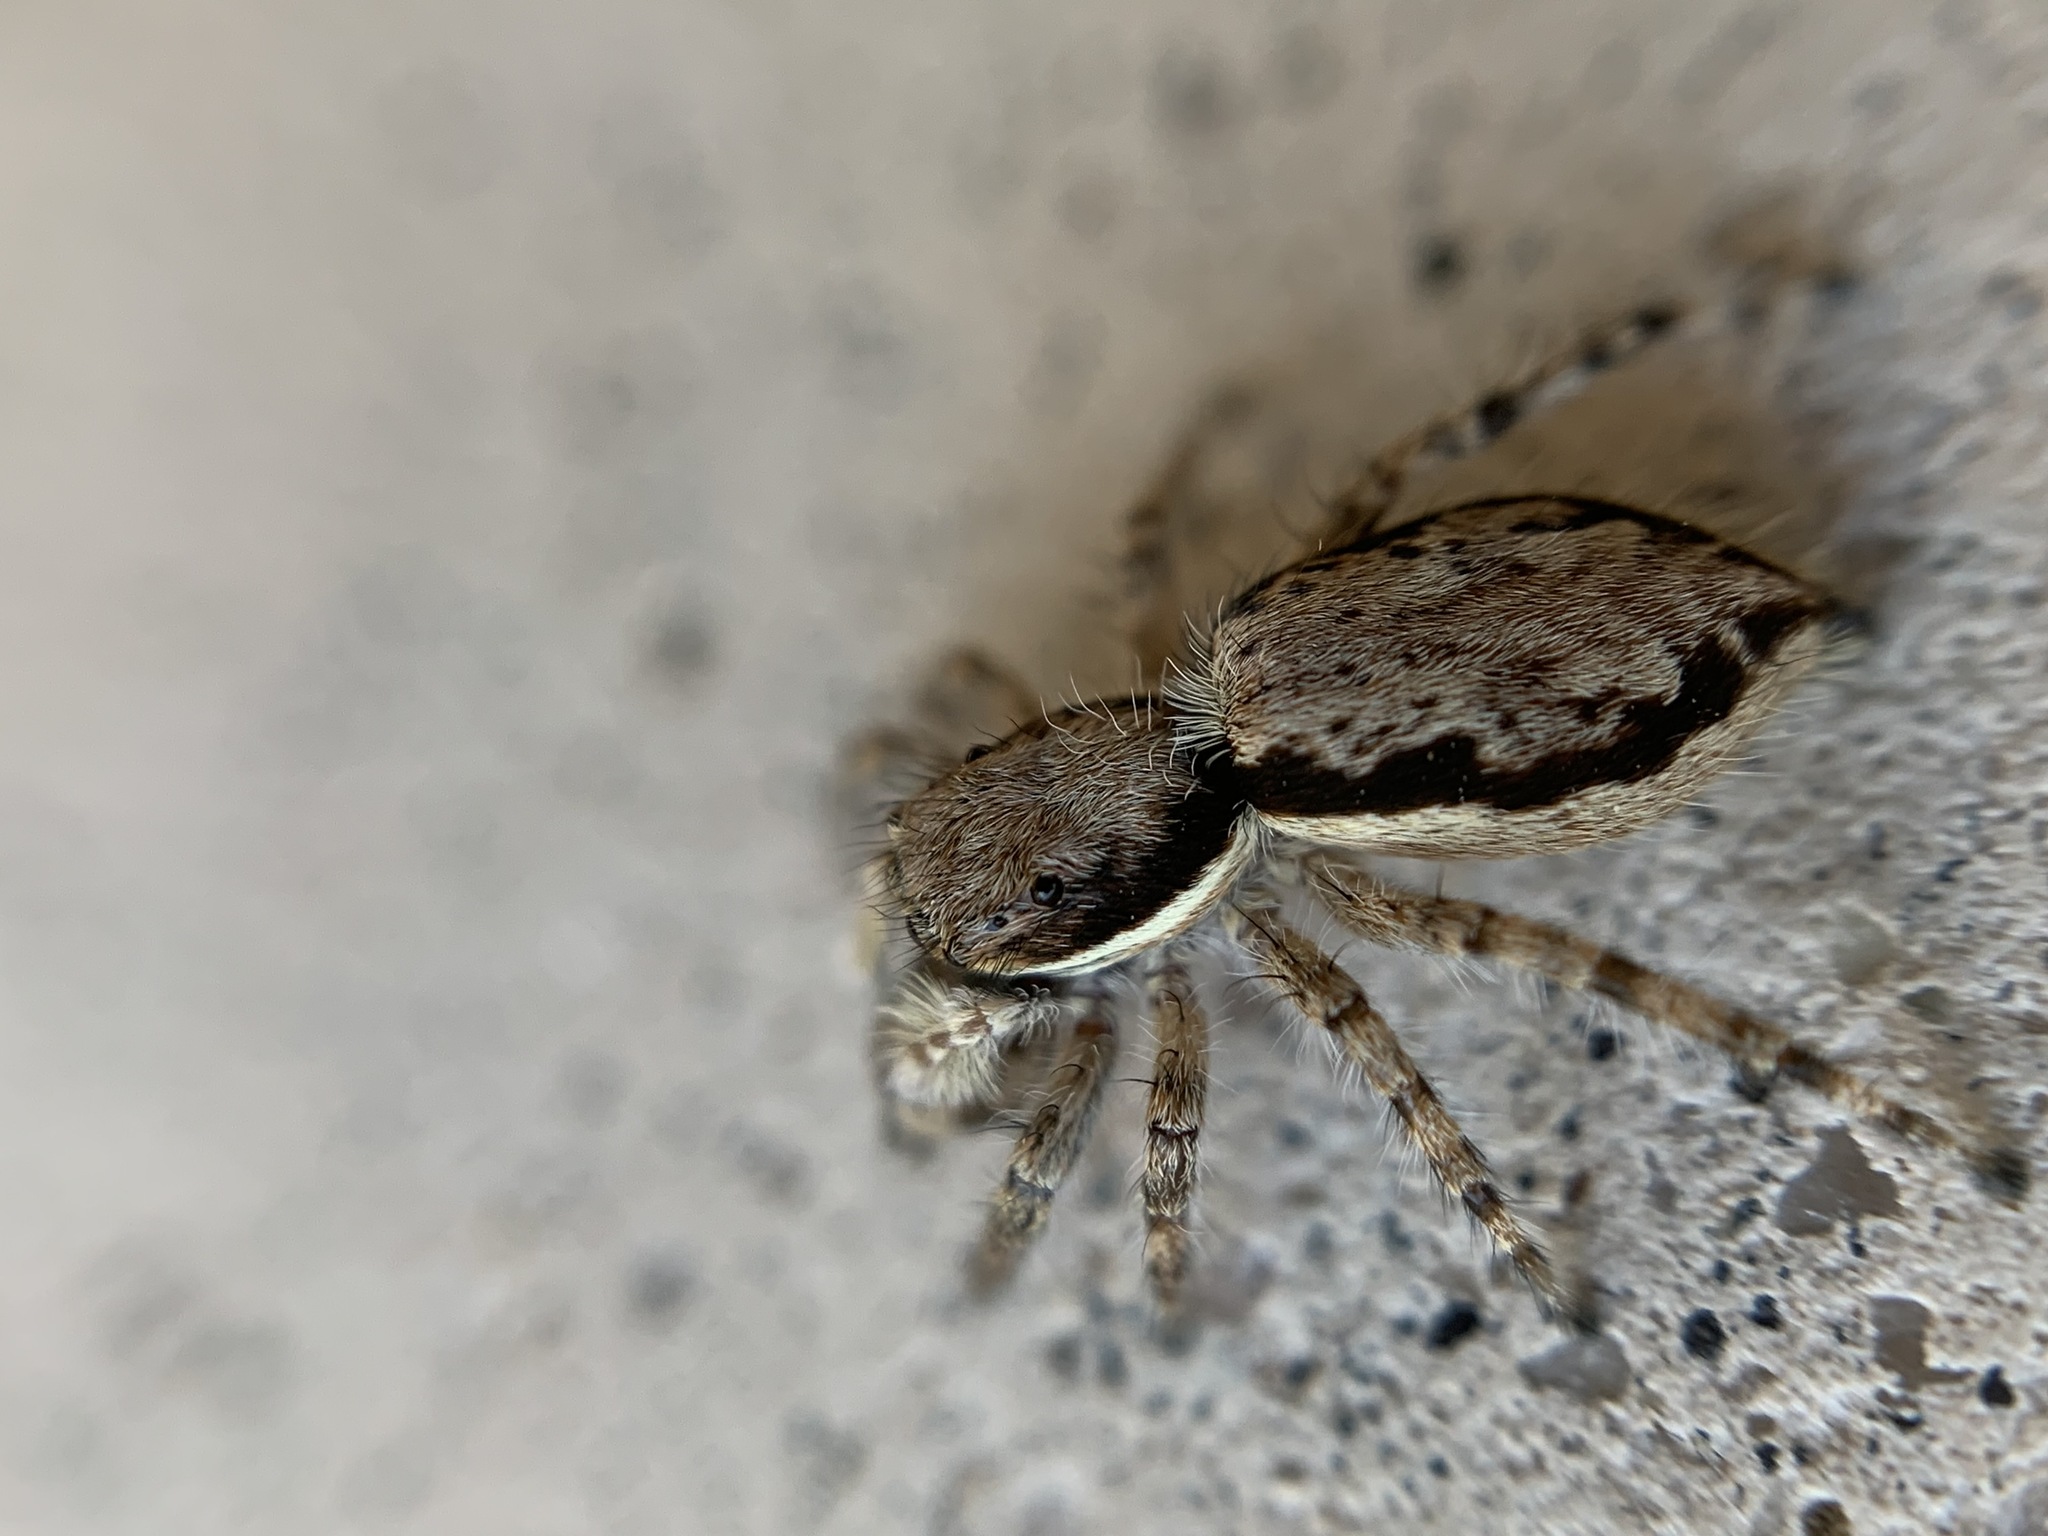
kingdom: Animalia
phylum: Arthropoda
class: Arachnida
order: Araneae
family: Salticidae
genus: Menemerus
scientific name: Menemerus bivittatus
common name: Gray wall jumper
